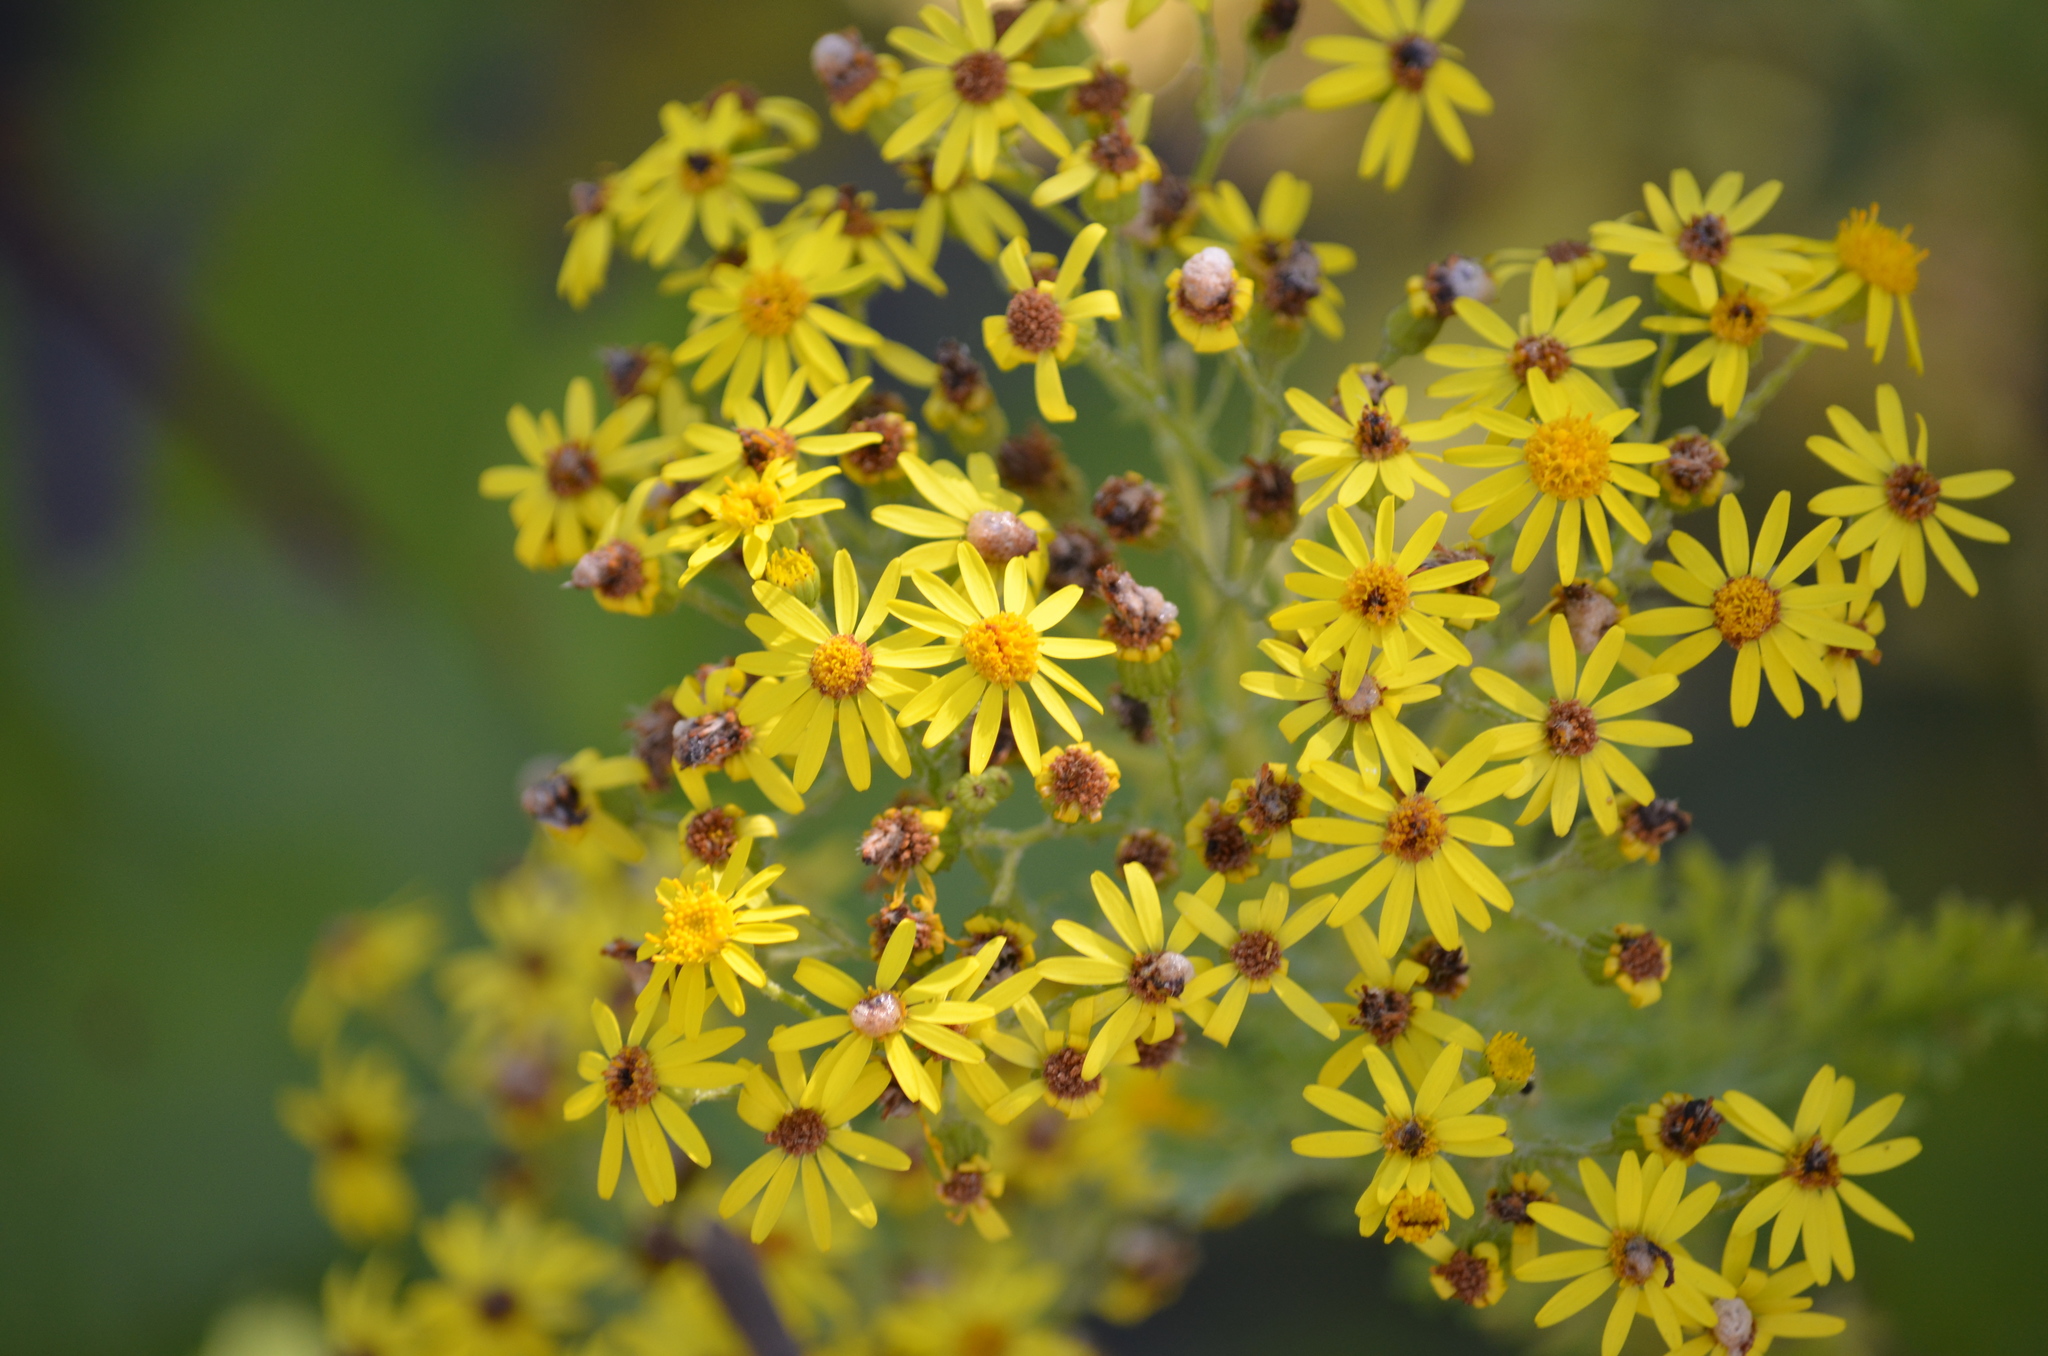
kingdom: Plantae
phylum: Tracheophyta
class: Magnoliopsida
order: Asterales
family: Asteraceae
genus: Jacobaea
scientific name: Jacobaea vulgaris
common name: Stinking willie
